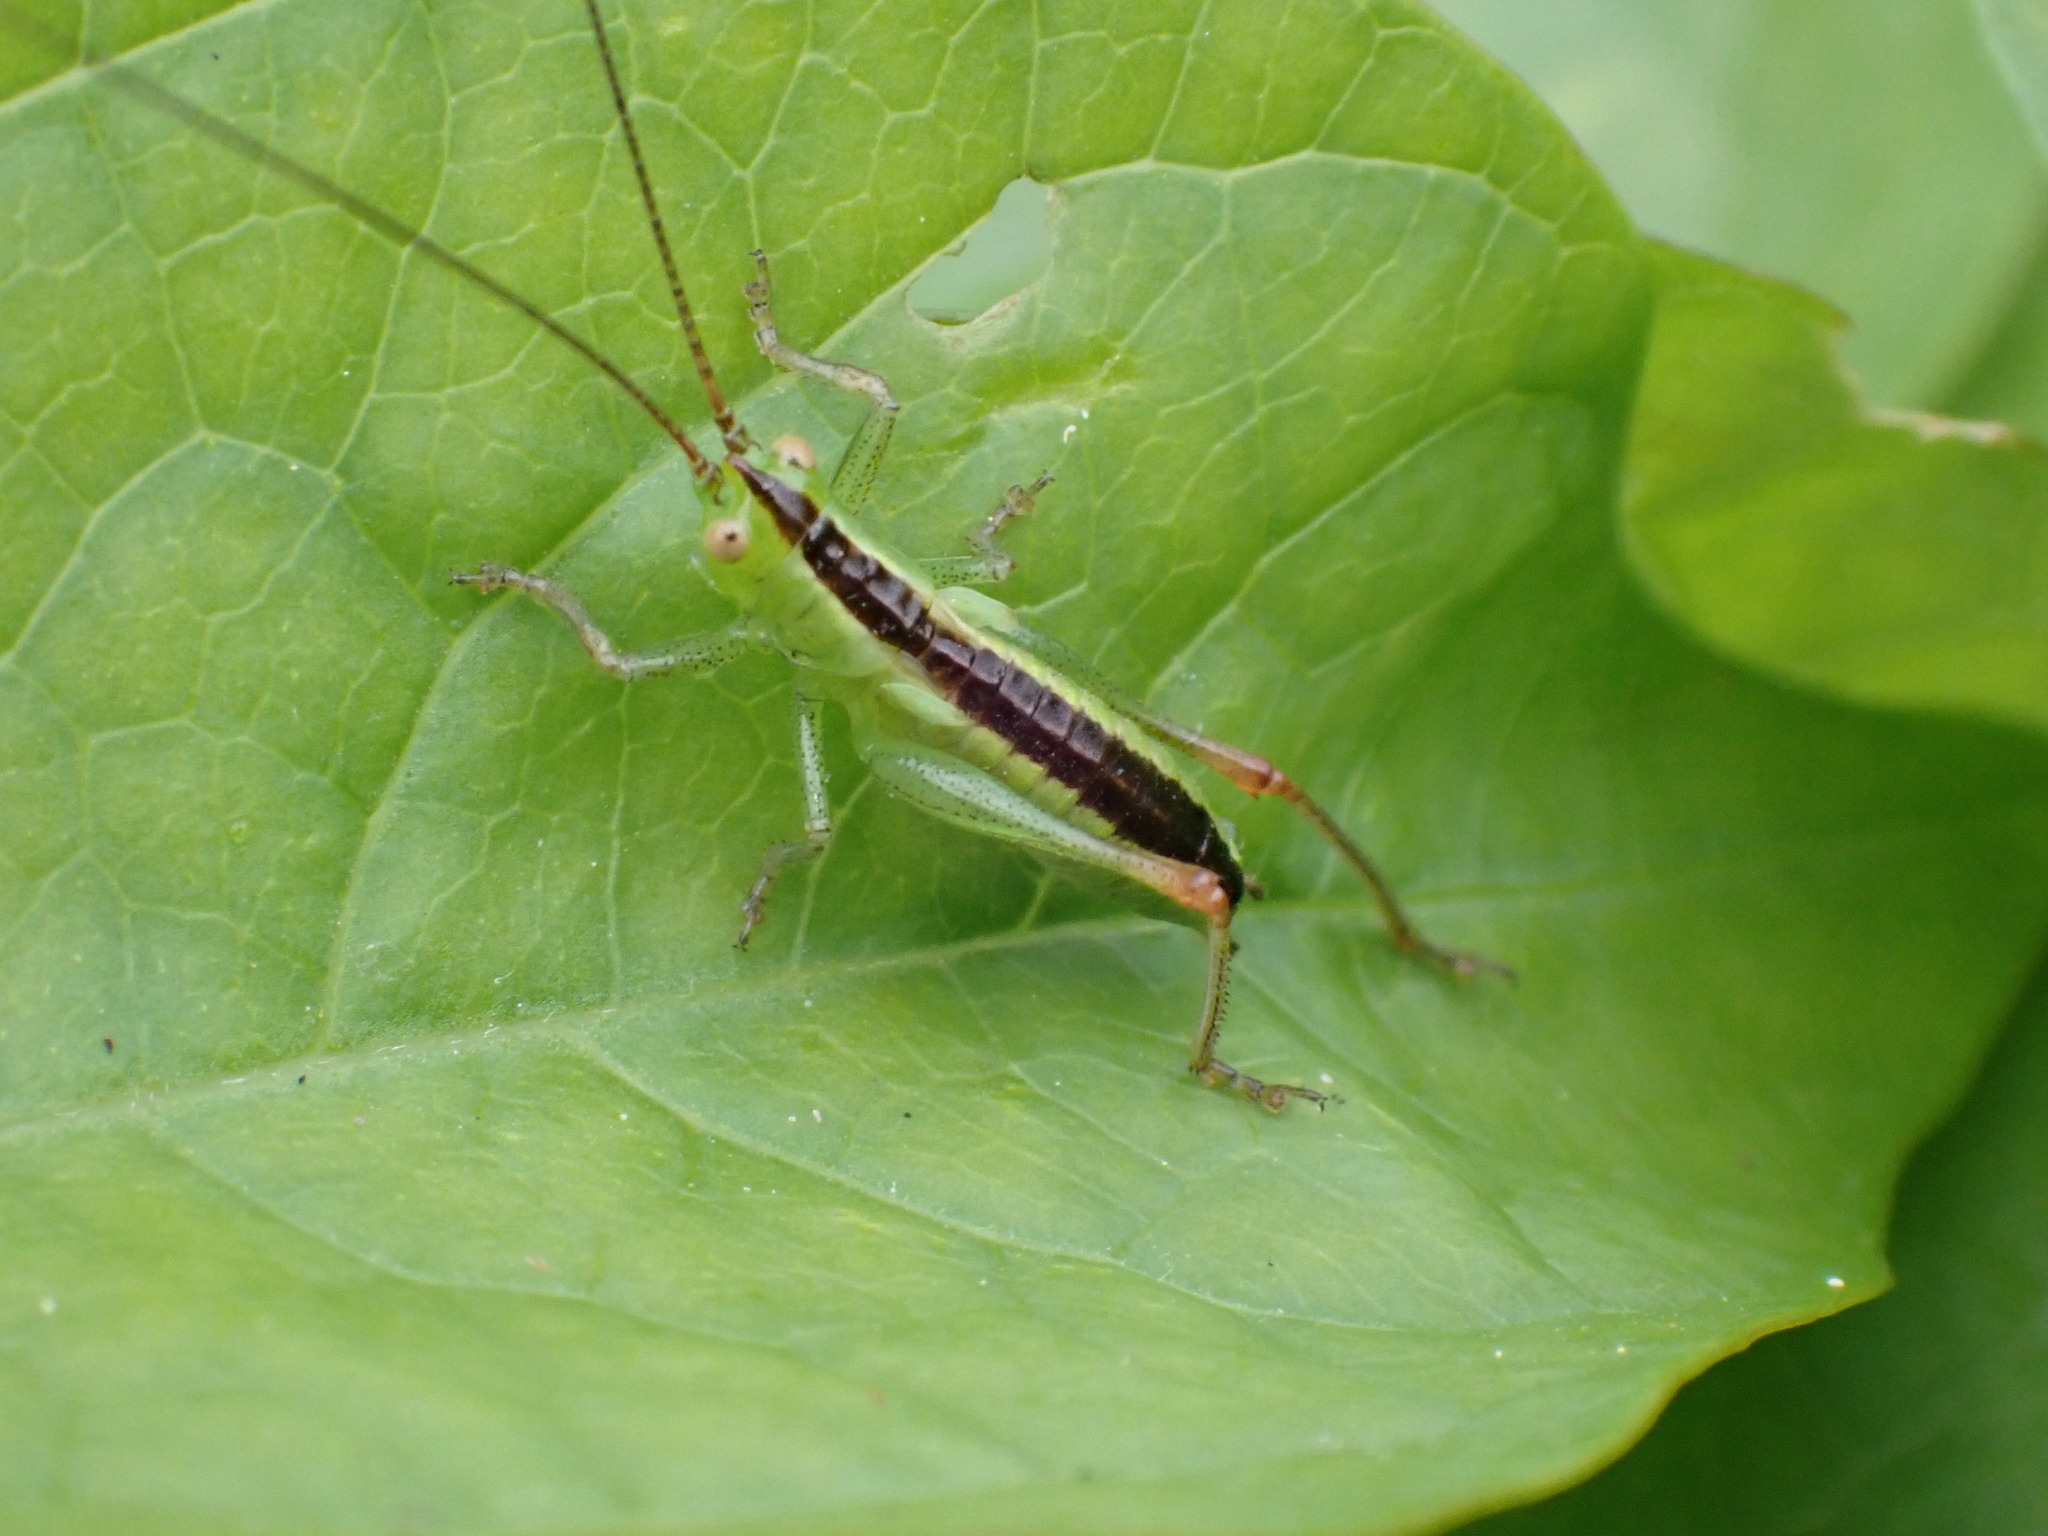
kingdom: Animalia
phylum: Arthropoda
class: Insecta
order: Orthoptera
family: Tettigoniidae
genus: Conocephalus
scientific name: Conocephalus dorsalis
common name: Short-winged conehead
